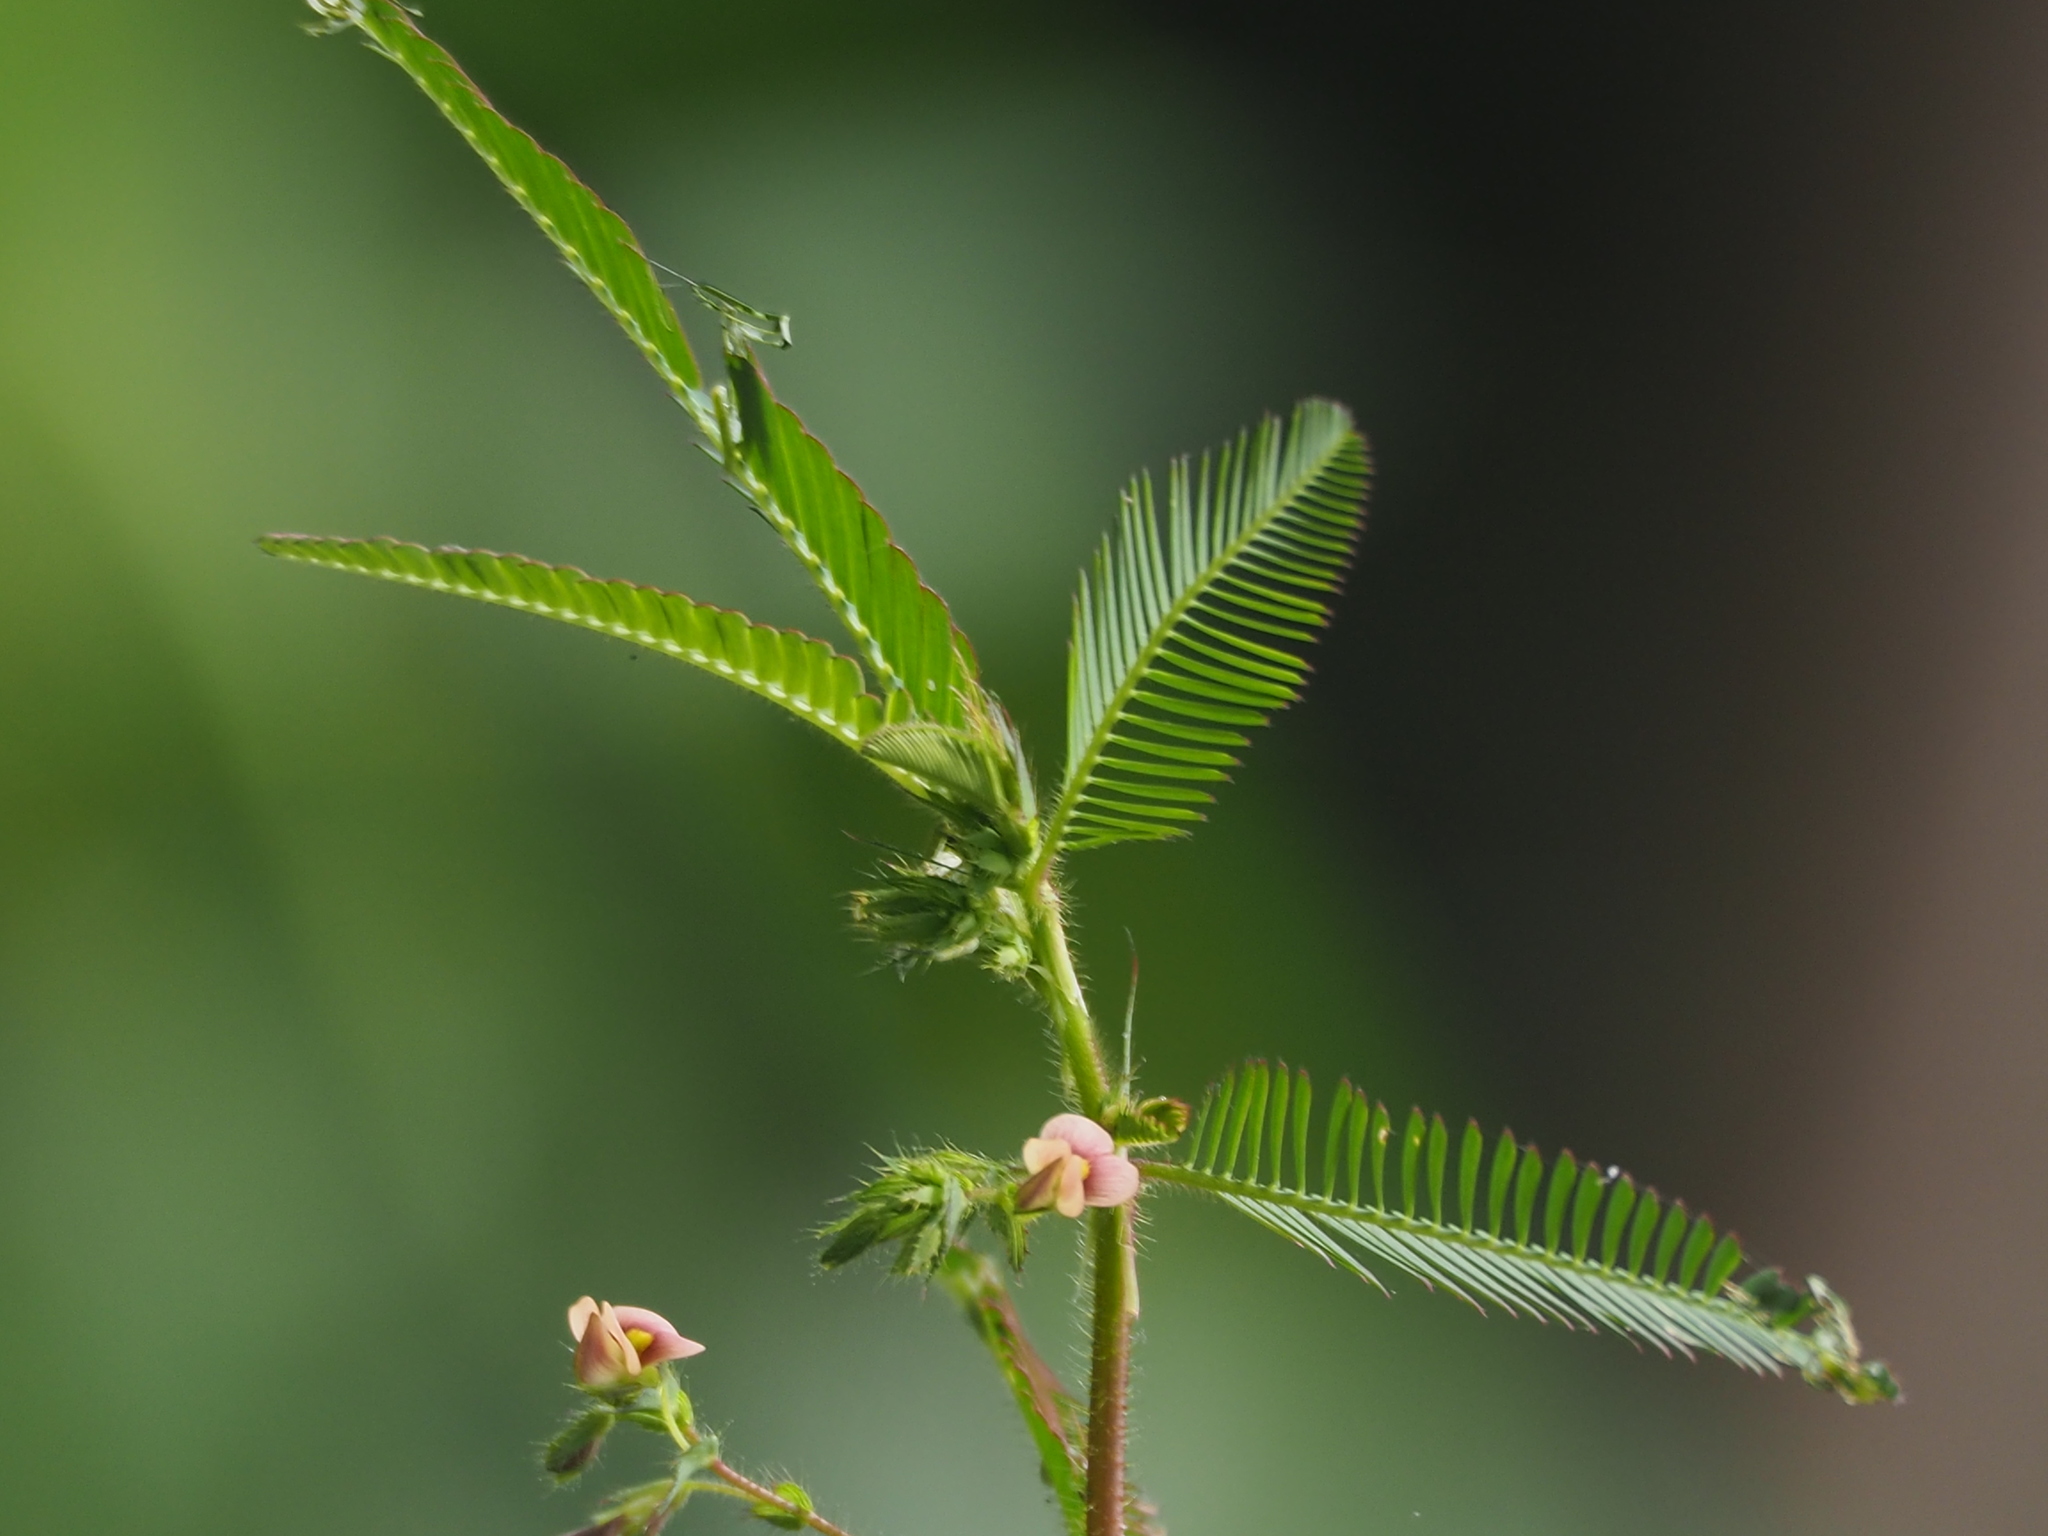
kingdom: Plantae
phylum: Tracheophyta
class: Magnoliopsida
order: Fabales
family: Fabaceae
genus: Aeschynomene
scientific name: Aeschynomene americana
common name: Joint-vetch
